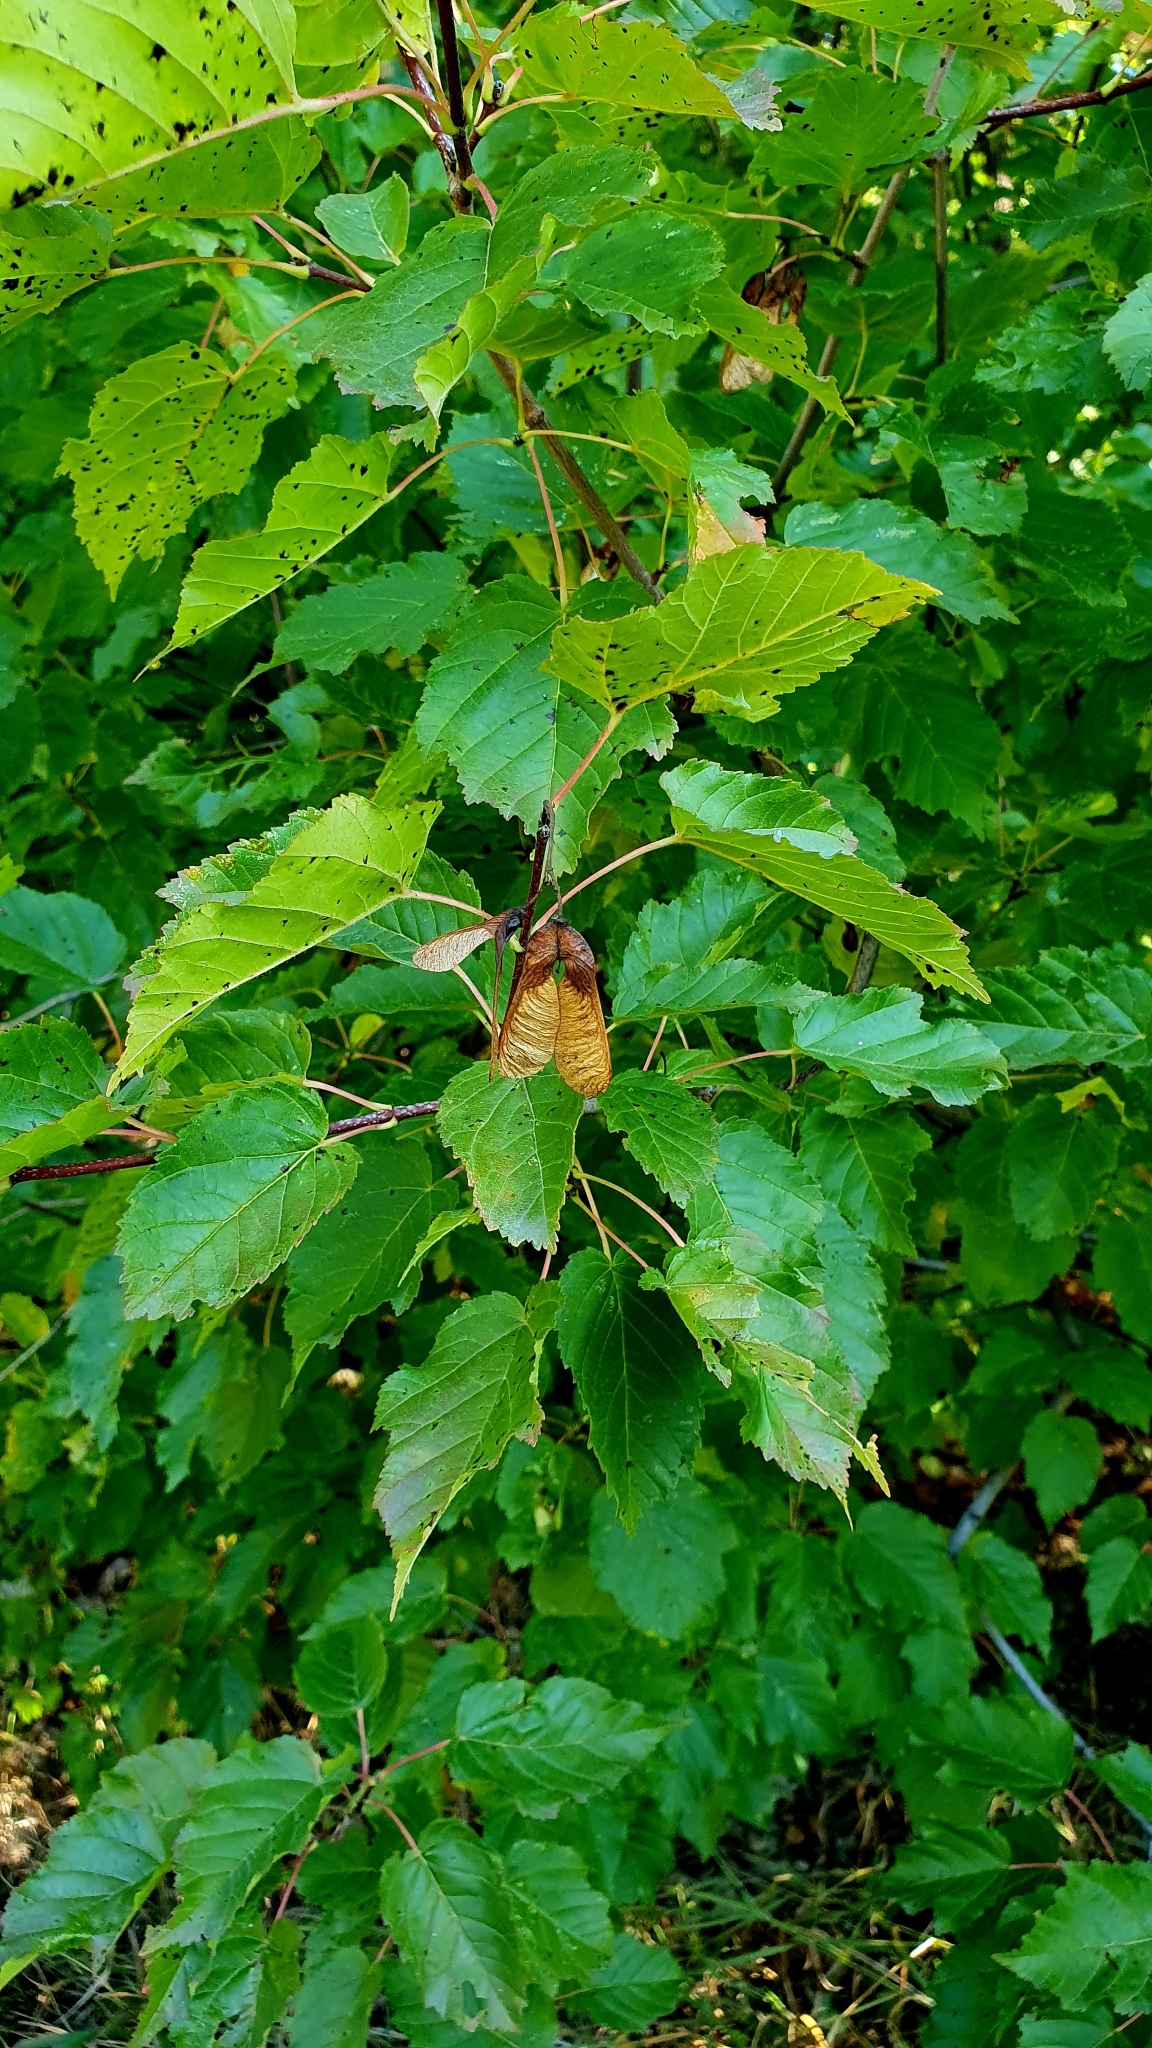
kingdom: Plantae
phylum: Tracheophyta
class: Magnoliopsida
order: Sapindales
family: Sapindaceae
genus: Acer
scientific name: Acer tataricum
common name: Tartar maple
